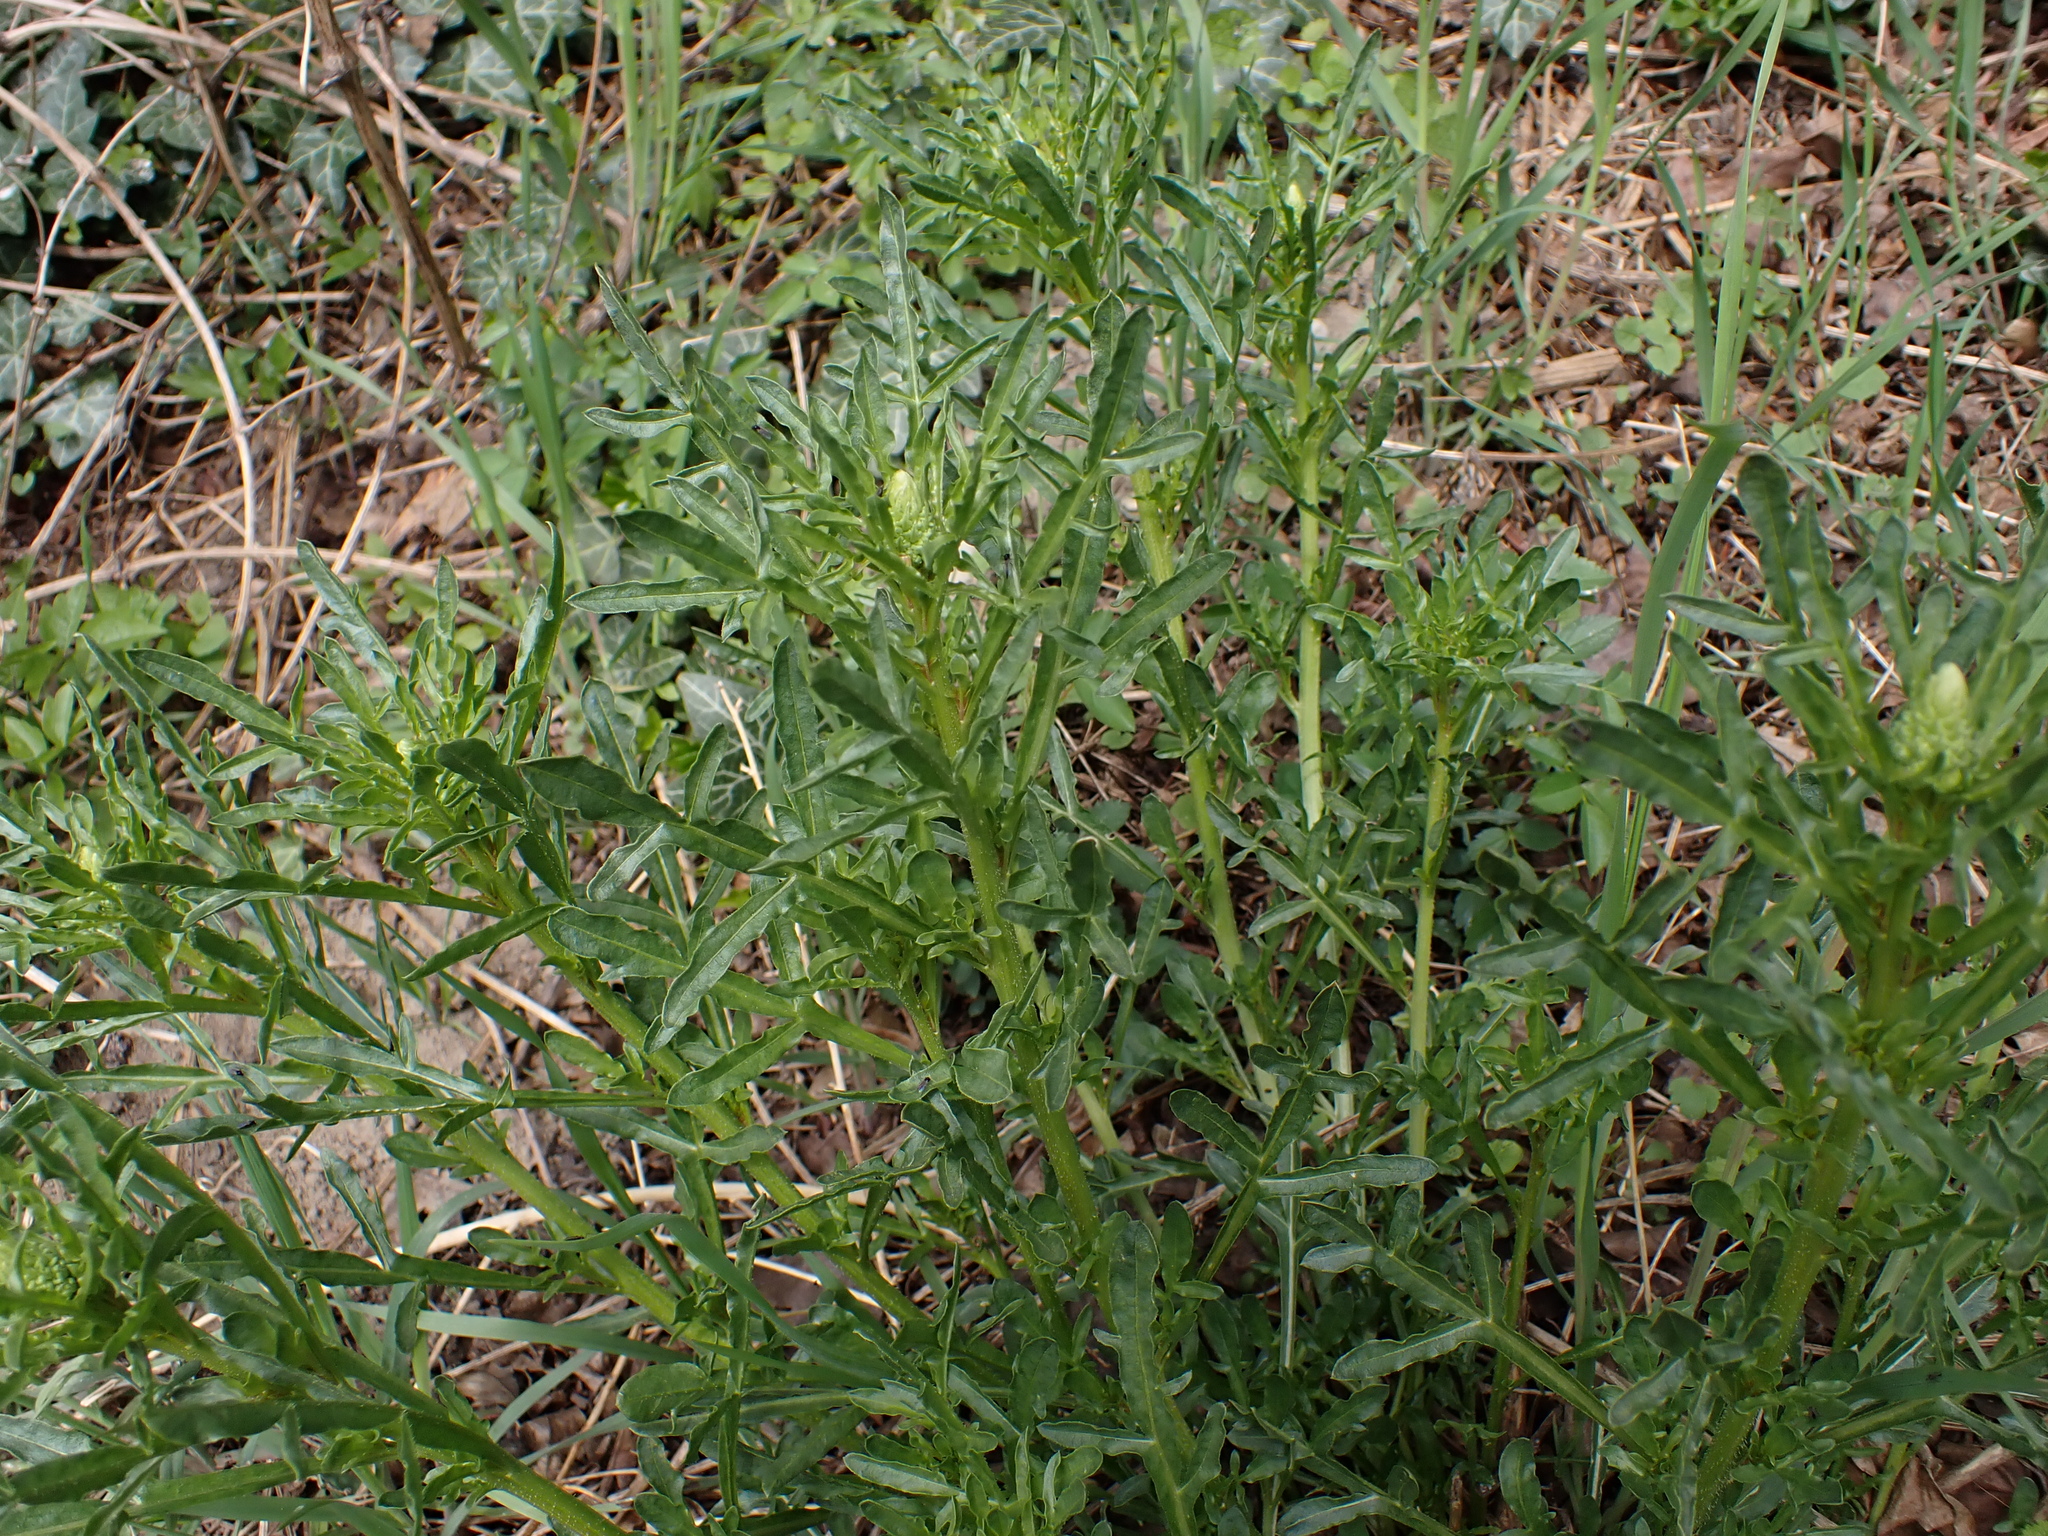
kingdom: Plantae
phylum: Tracheophyta
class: Magnoliopsida
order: Brassicales
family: Resedaceae
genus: Reseda
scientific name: Reseda lutea
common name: Wild mignonette
